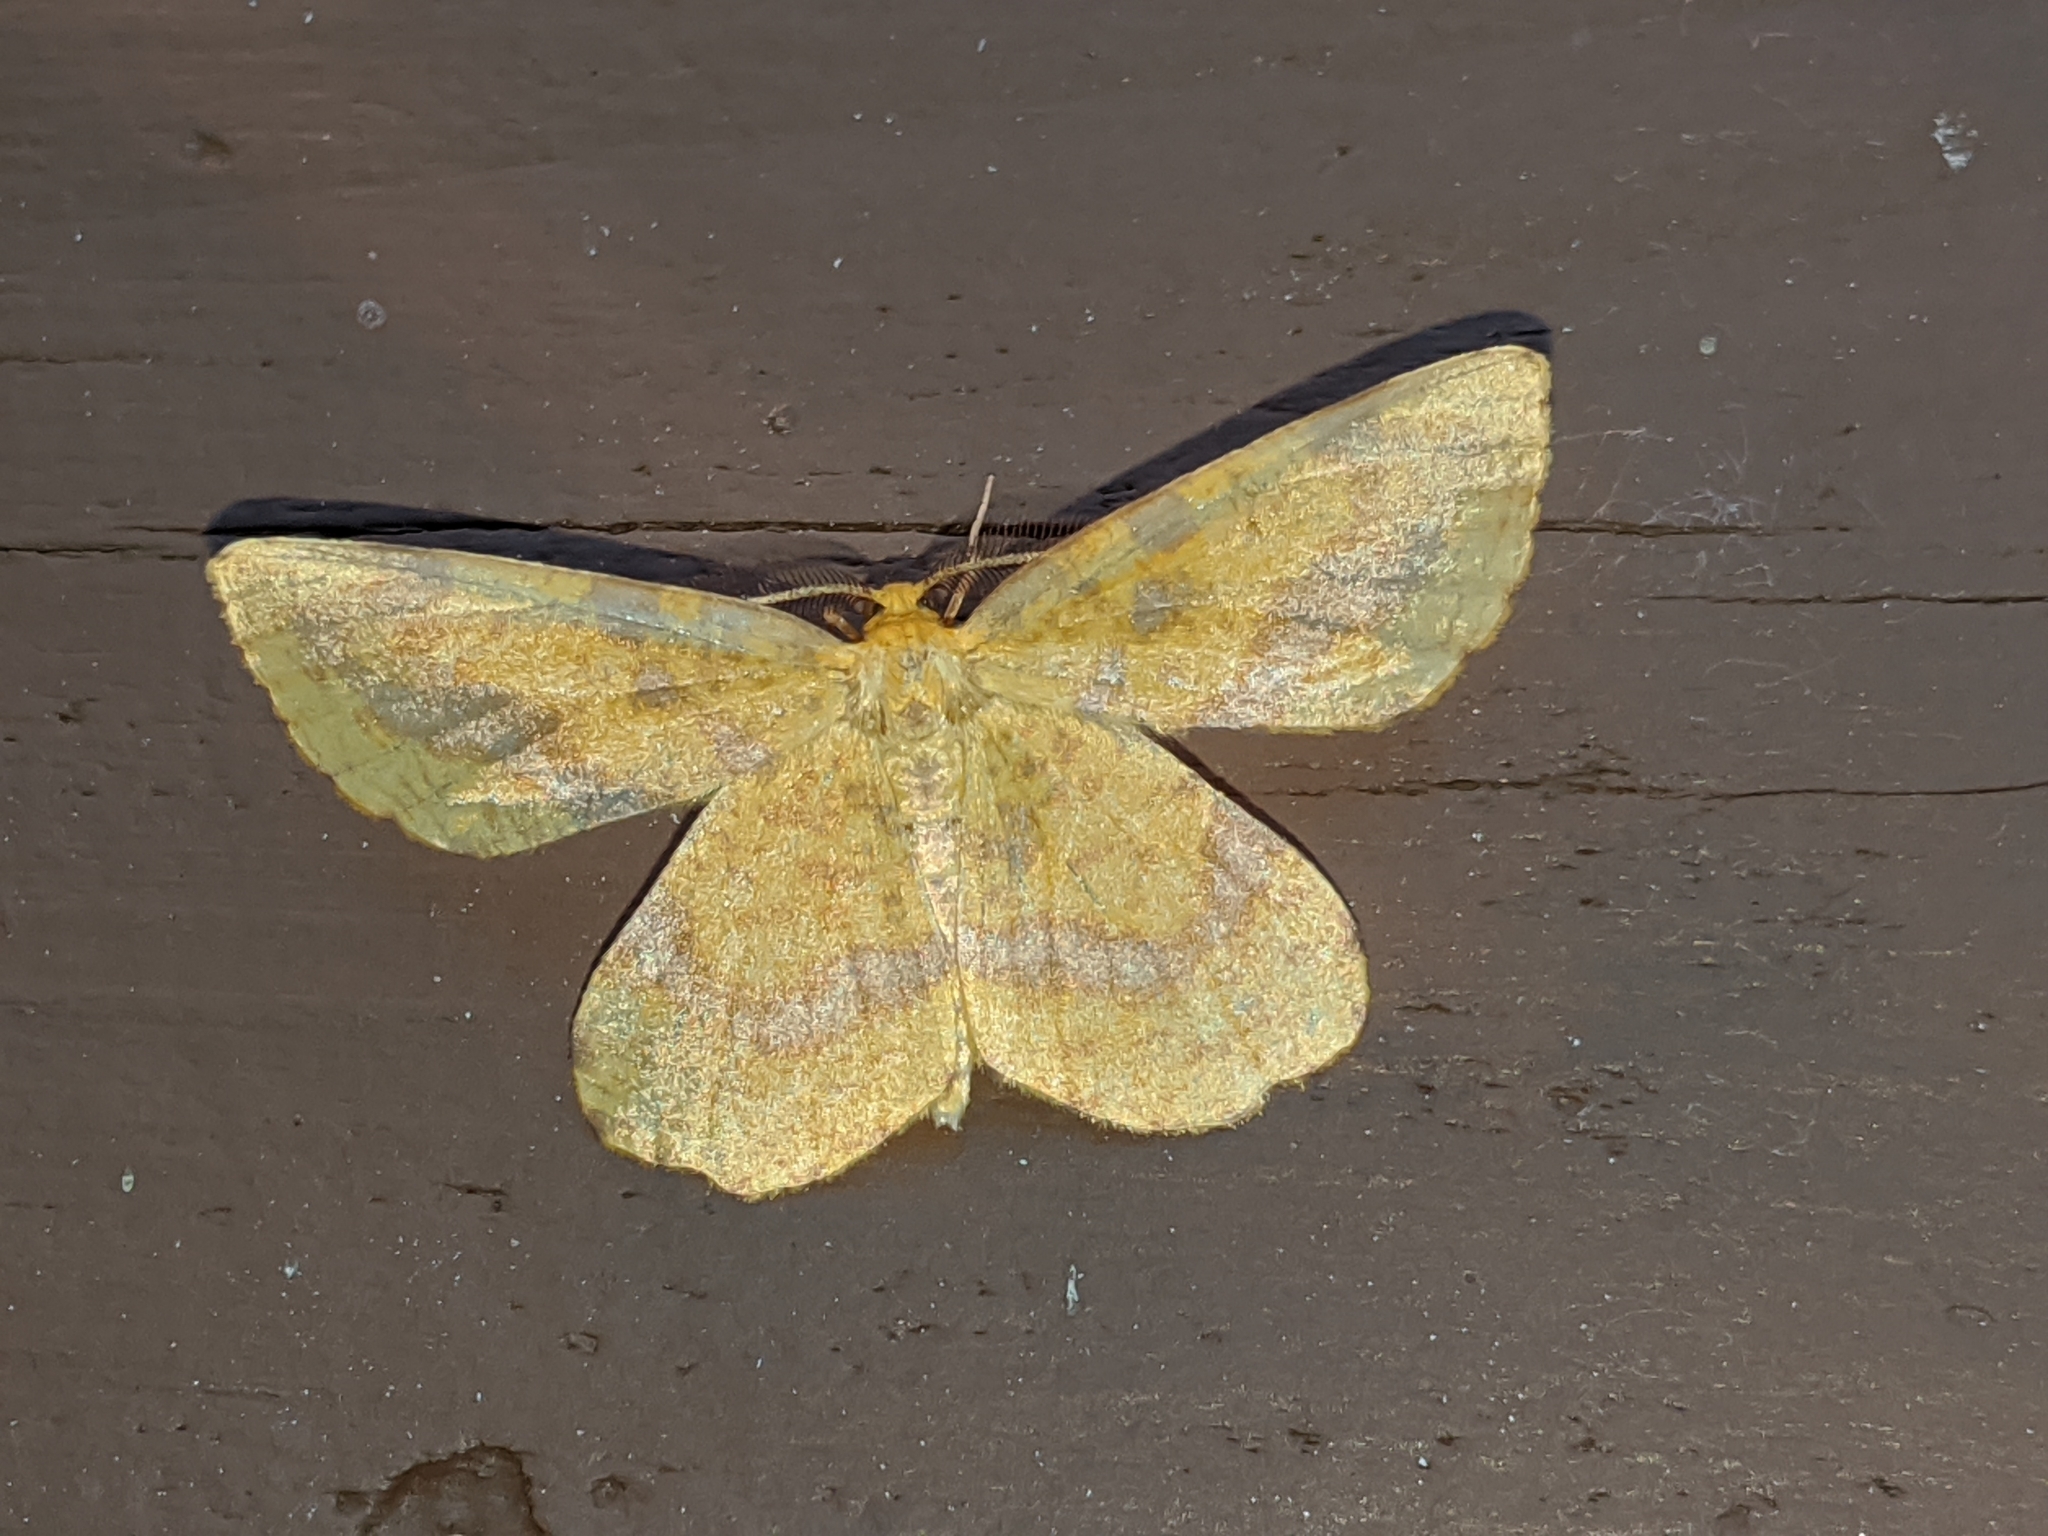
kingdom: Animalia
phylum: Arthropoda
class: Insecta
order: Lepidoptera
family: Geometridae
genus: Xanthotype
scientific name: Xanthotype
